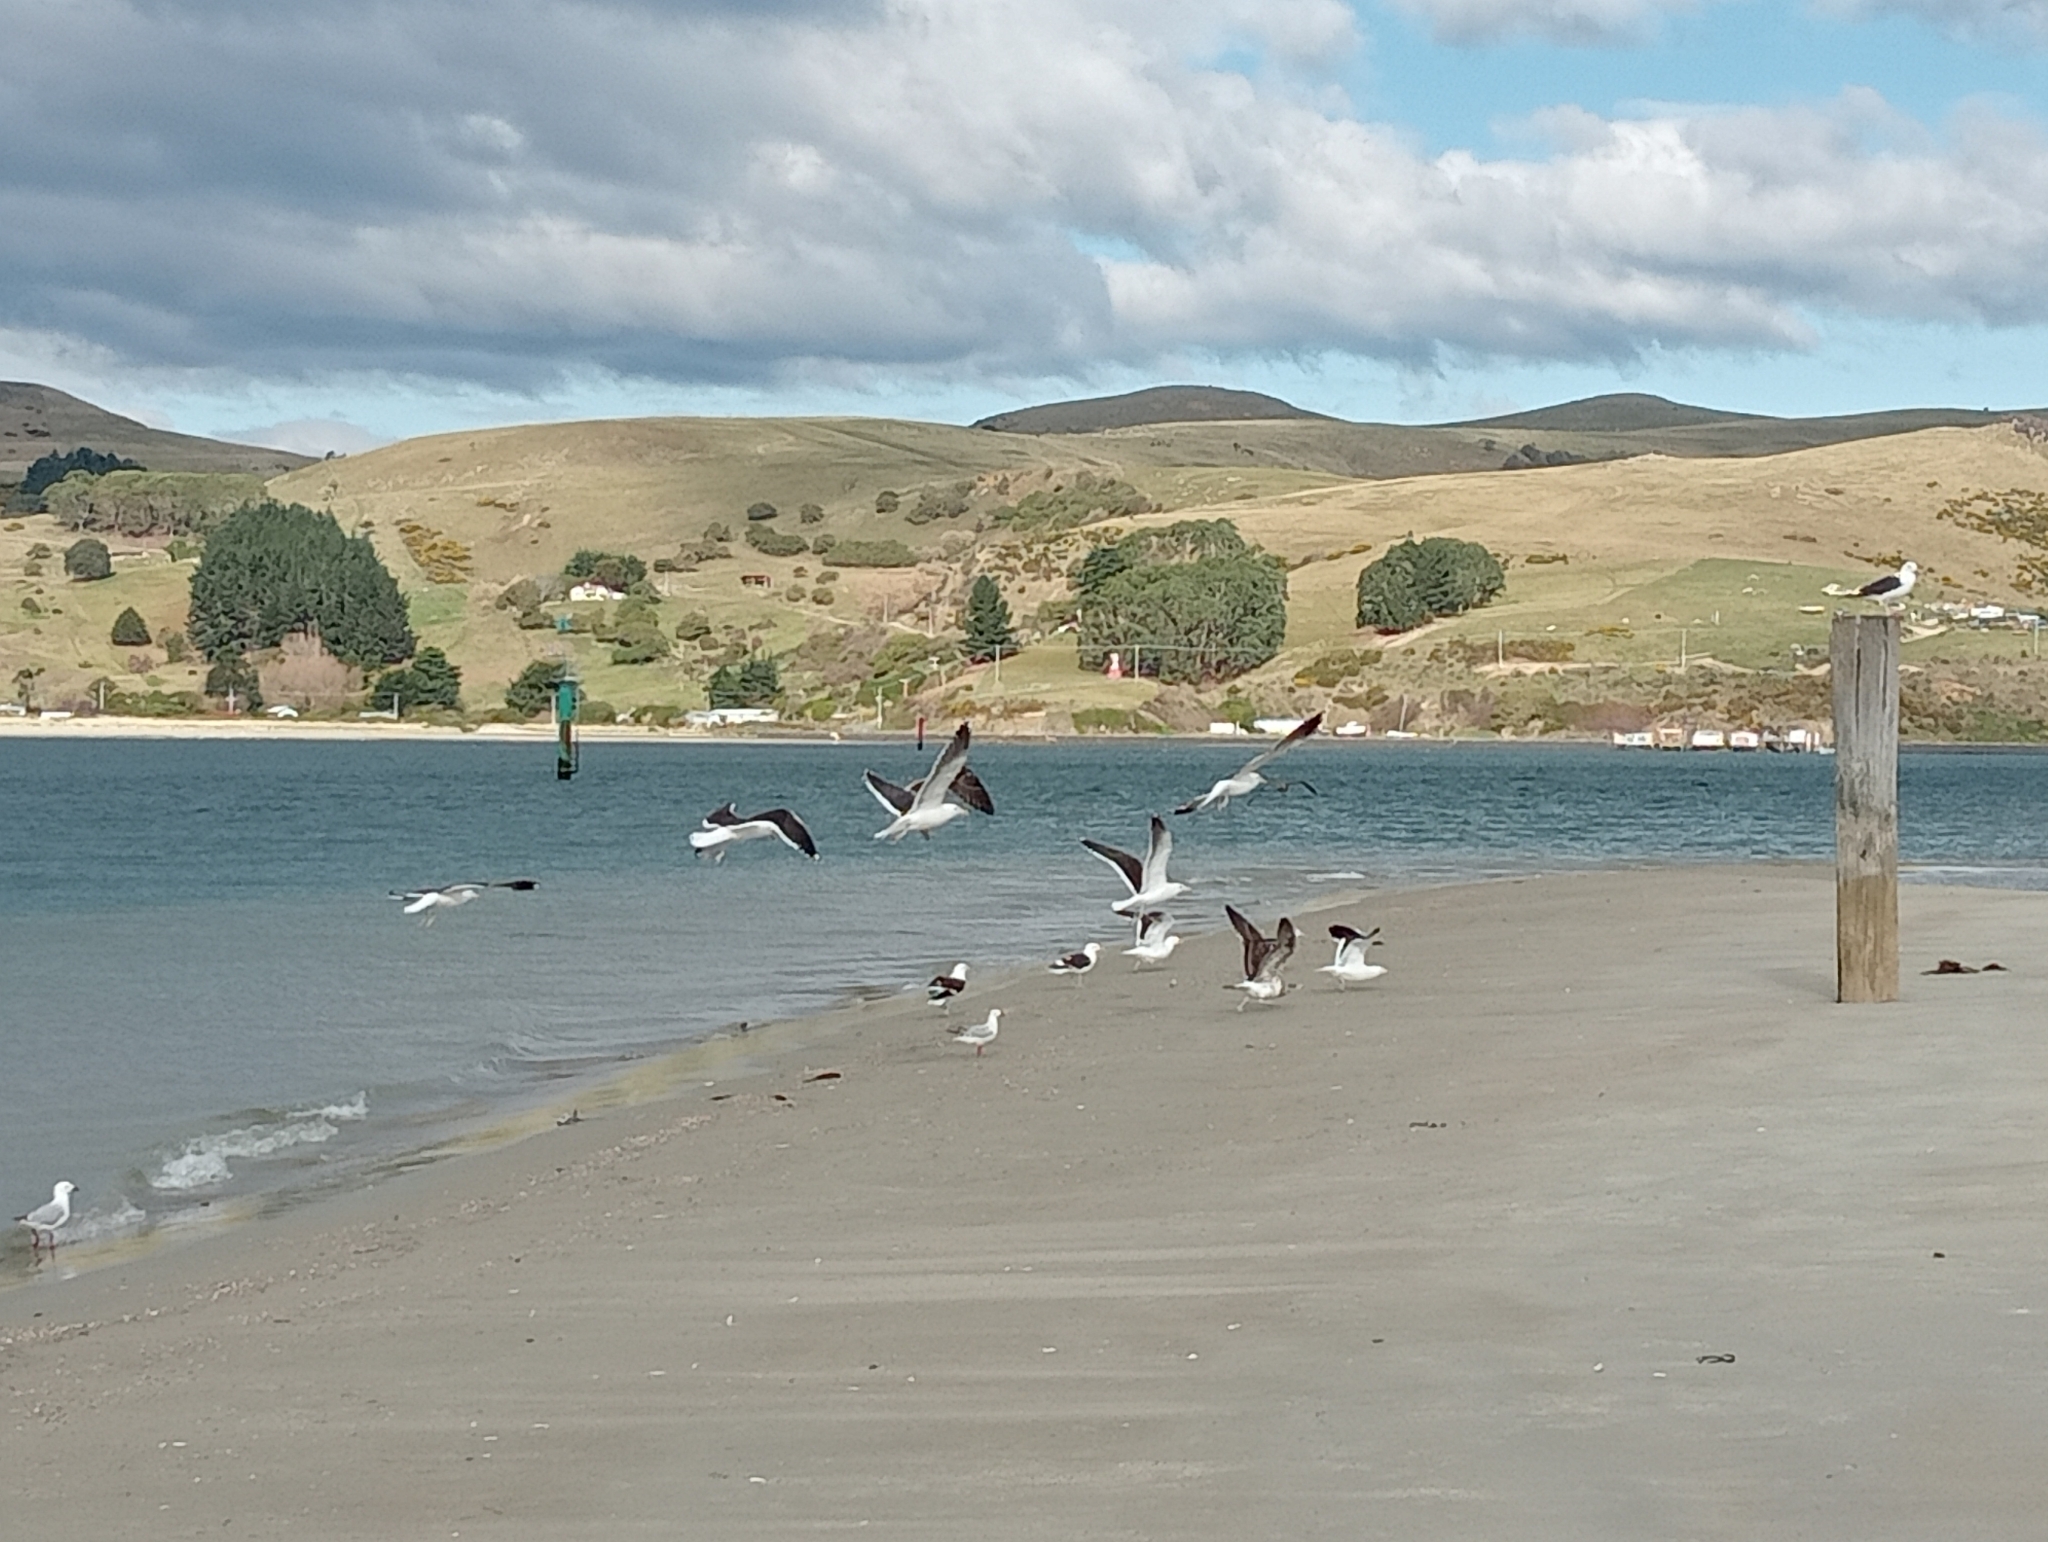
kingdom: Animalia
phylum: Chordata
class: Aves
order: Charadriiformes
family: Laridae
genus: Larus
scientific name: Larus dominicanus
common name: Kelp gull
